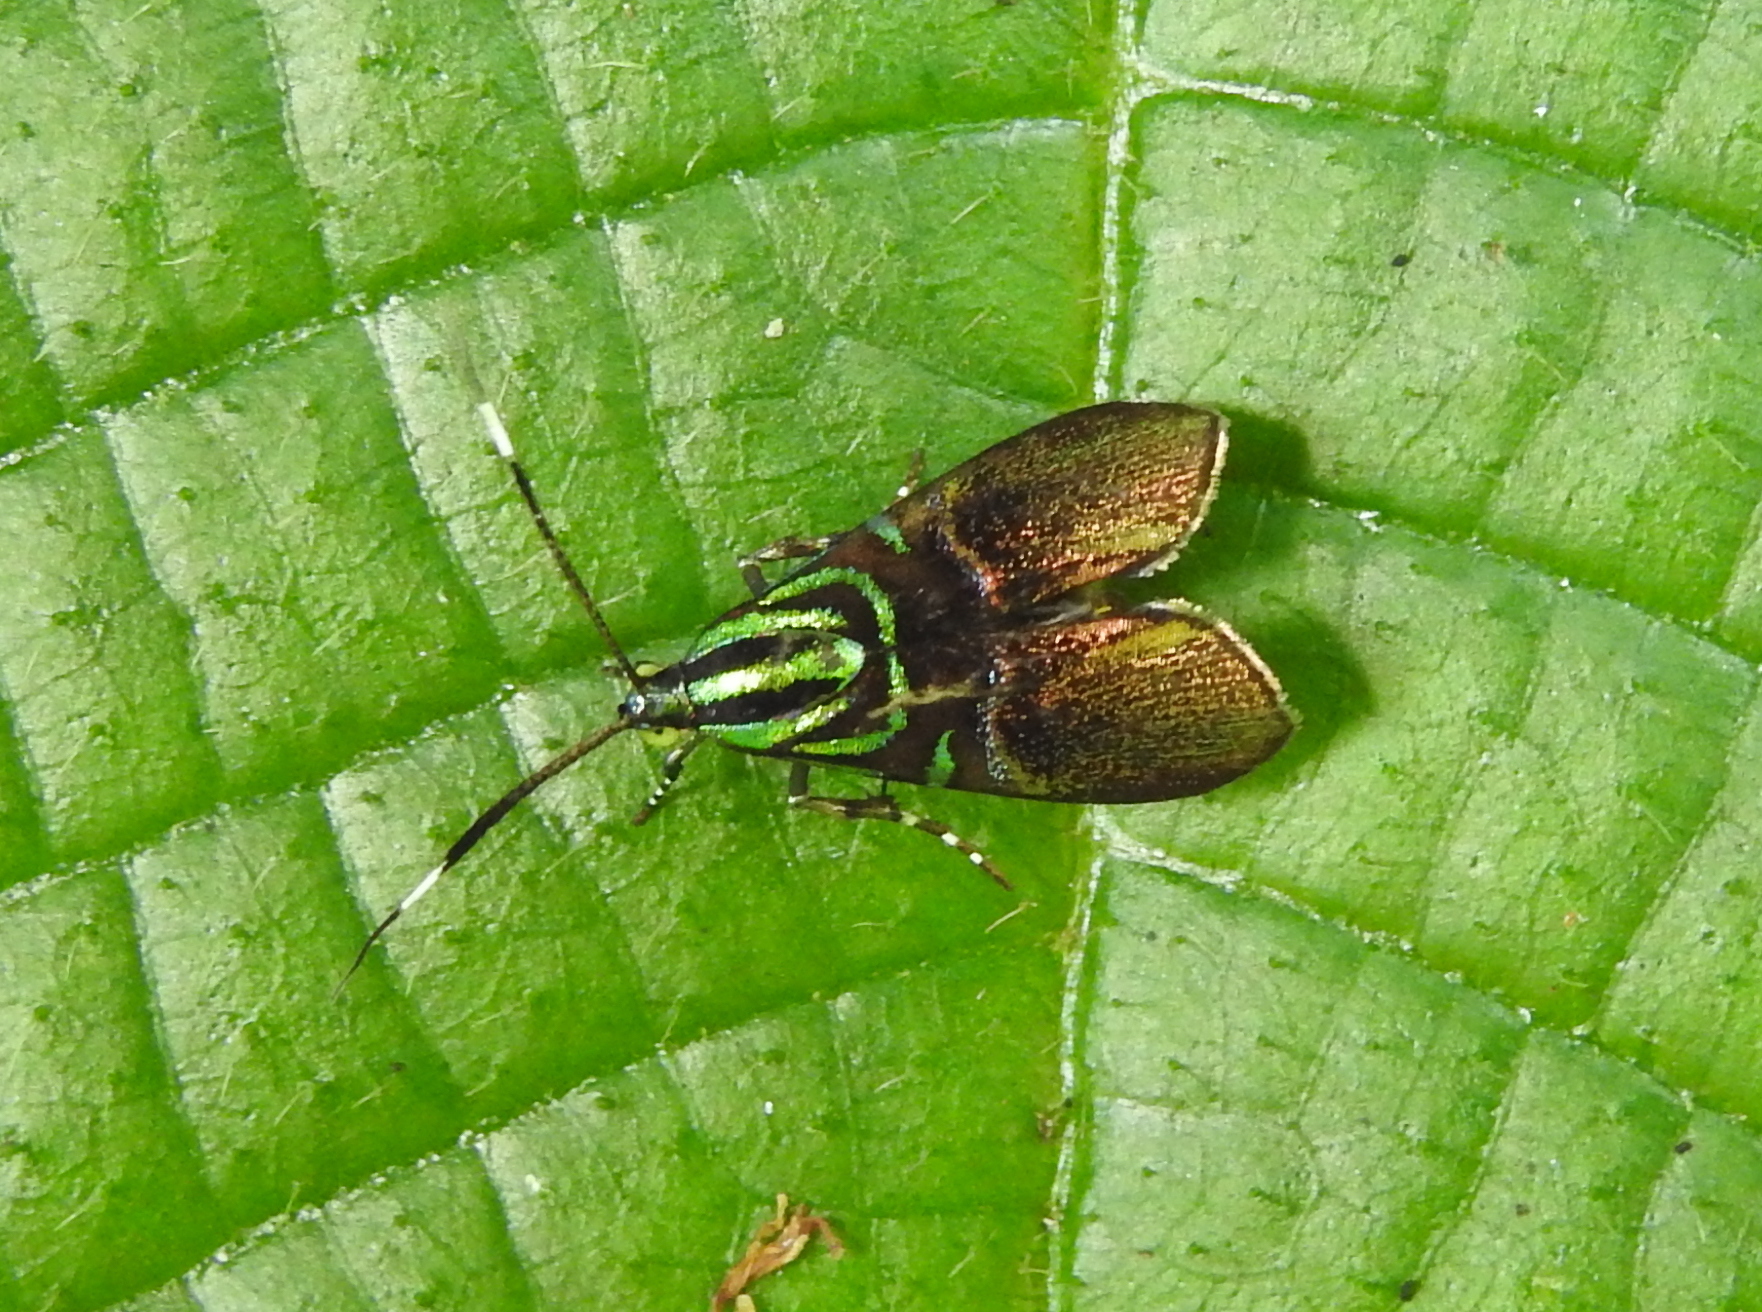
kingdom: Animalia
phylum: Arthropoda
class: Insecta
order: Lepidoptera
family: Choreutidae
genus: Saptha
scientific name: Saptha exanthista
